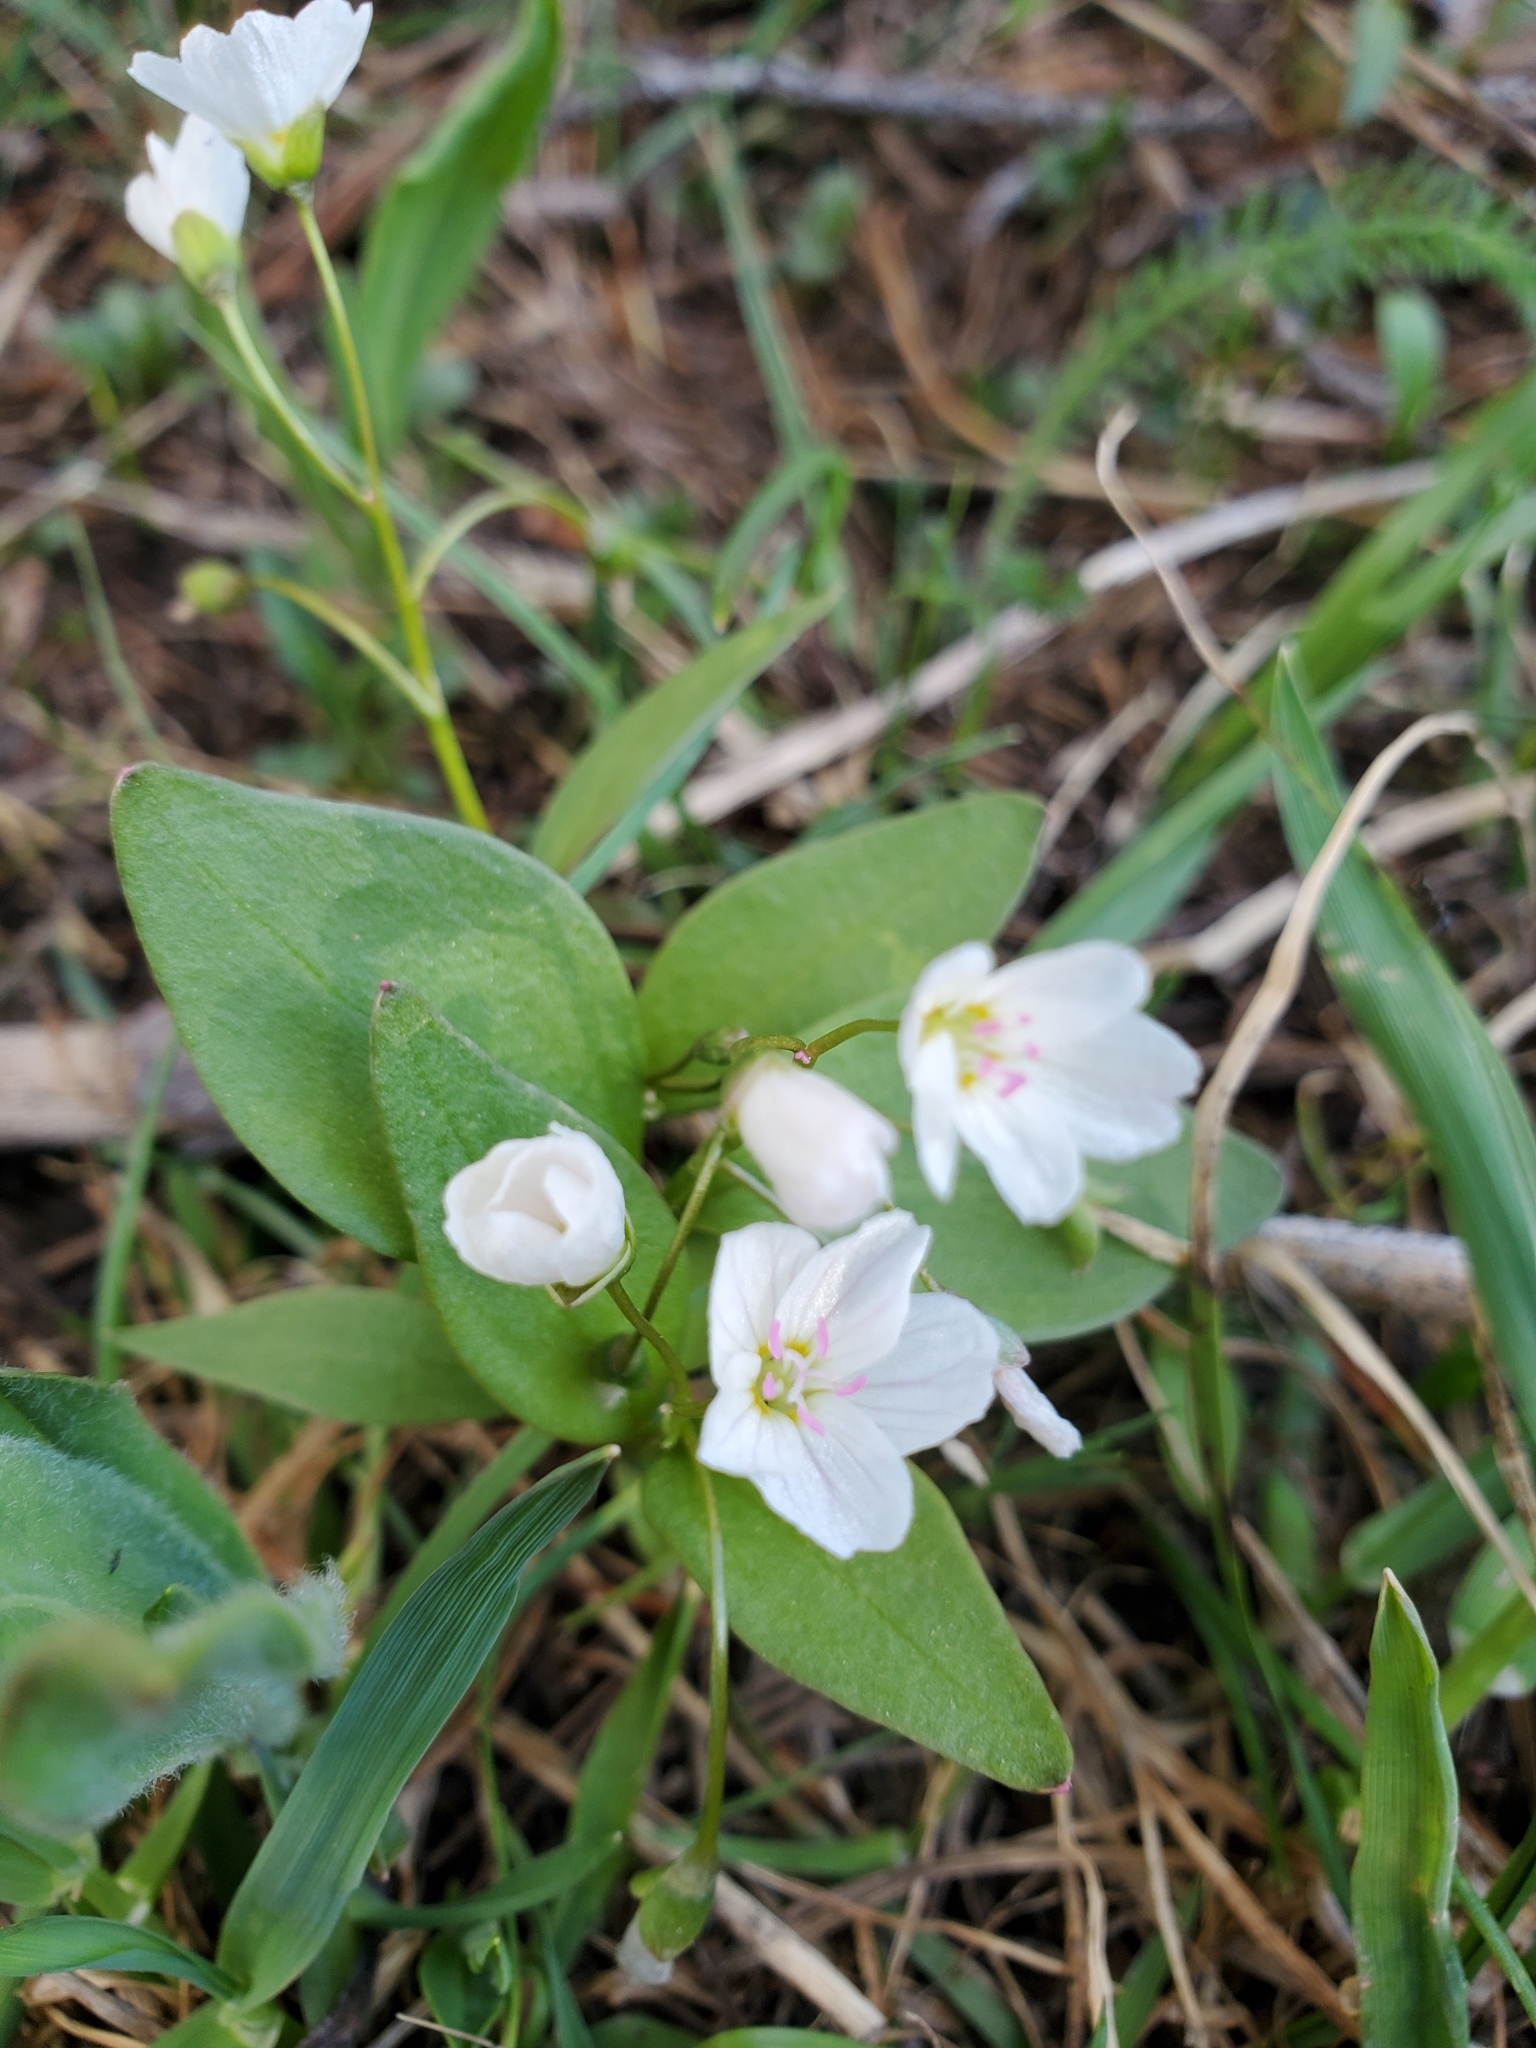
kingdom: Plantae
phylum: Tracheophyta
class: Magnoliopsida
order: Caryophyllales
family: Montiaceae
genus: Claytonia
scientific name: Claytonia lanceolata
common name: Western spring-beauty
